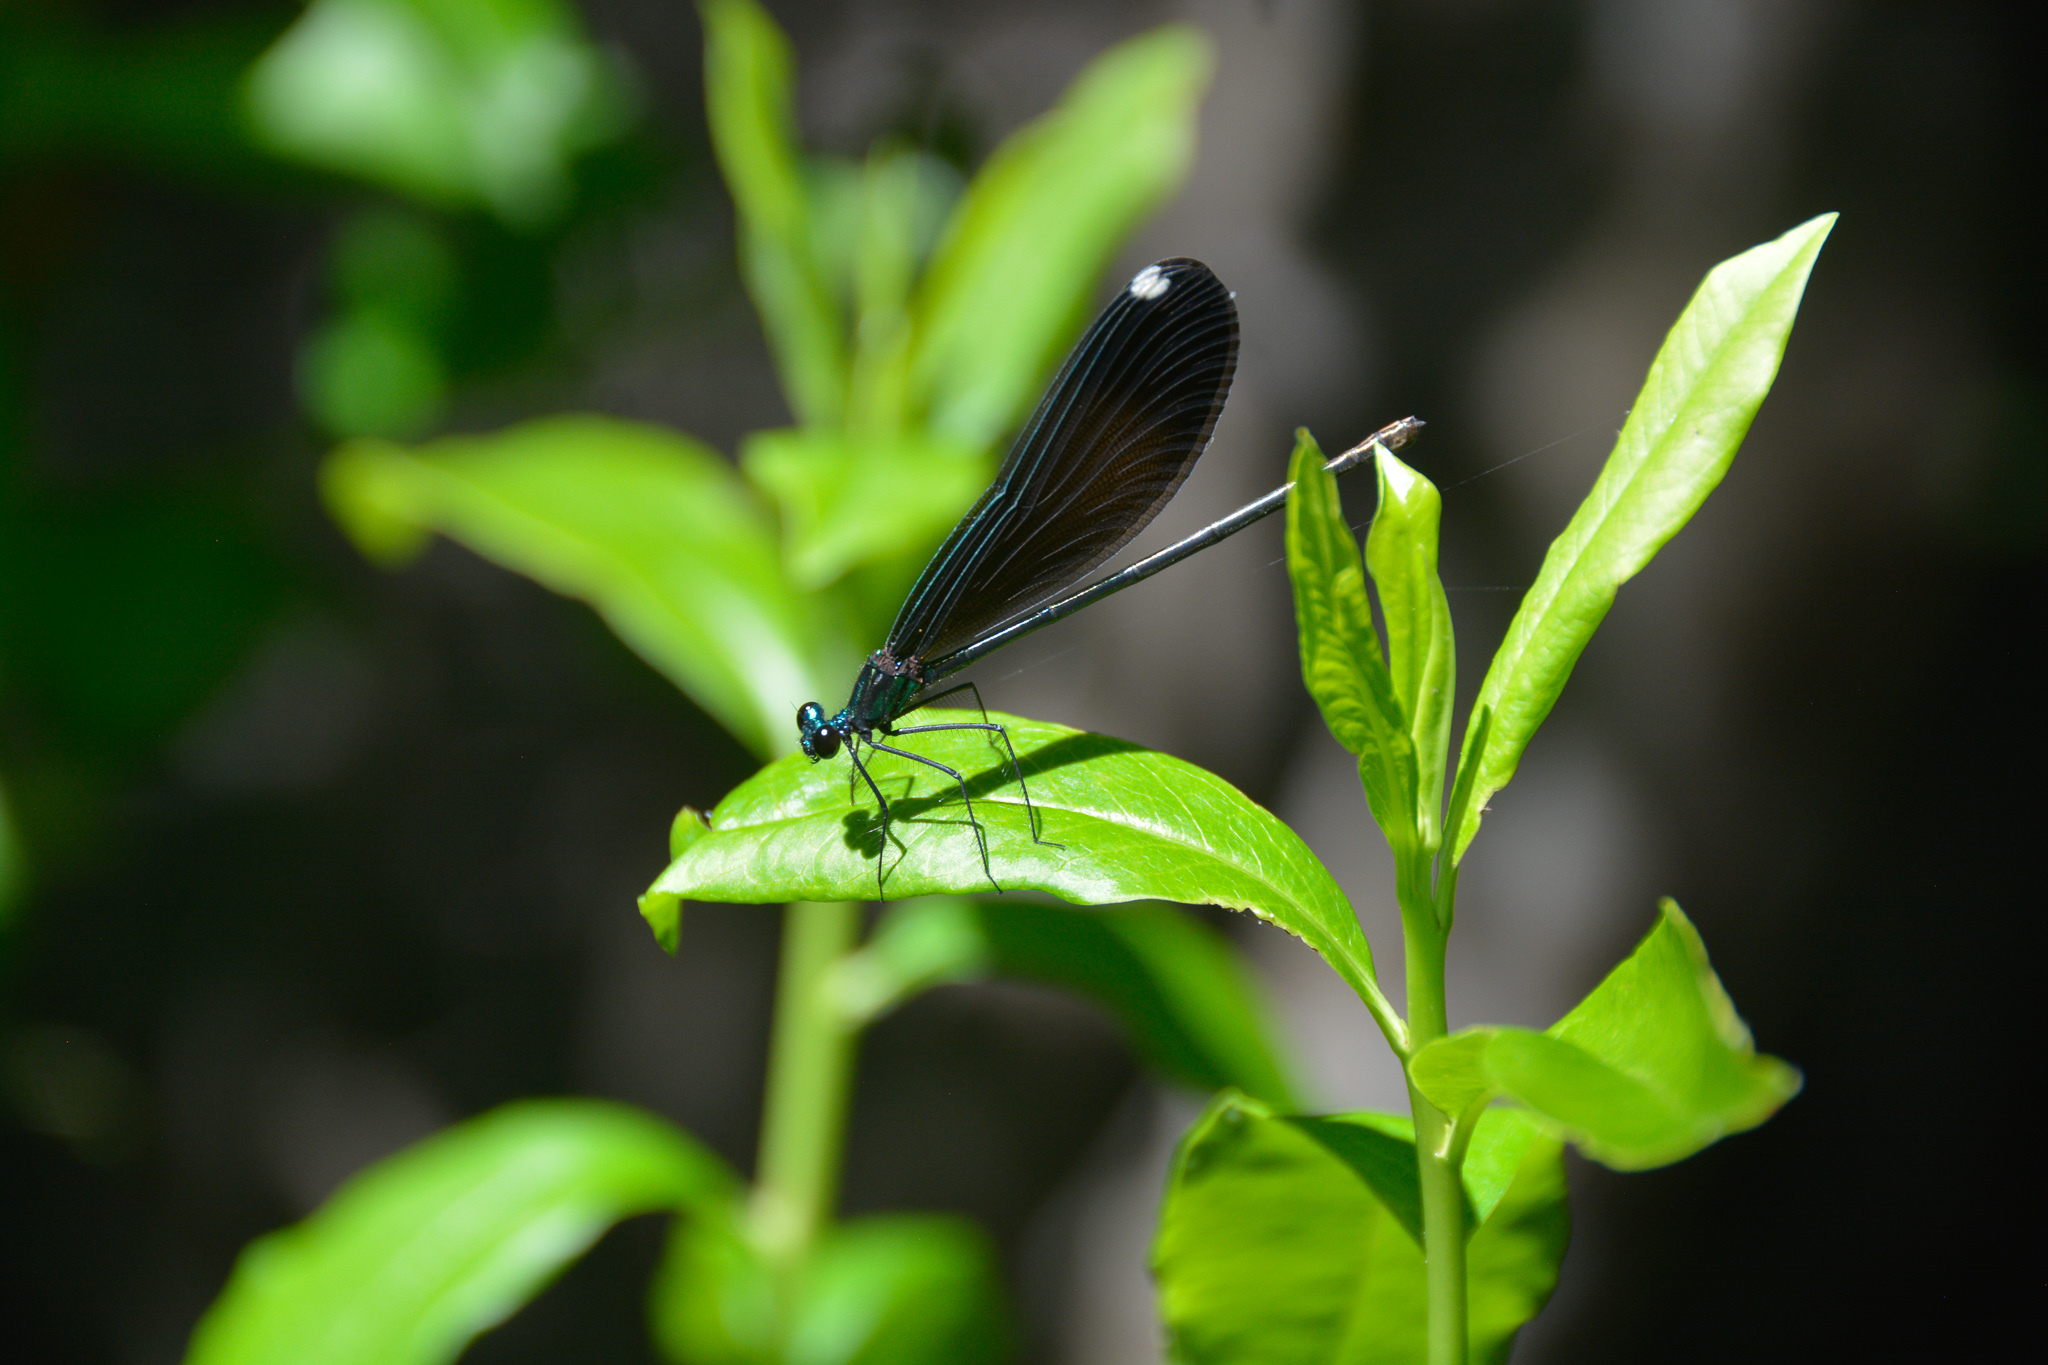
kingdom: Animalia
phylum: Arthropoda
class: Insecta
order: Odonata
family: Calopterygidae
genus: Calopteryx
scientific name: Calopteryx maculata
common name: Ebony jewelwing
